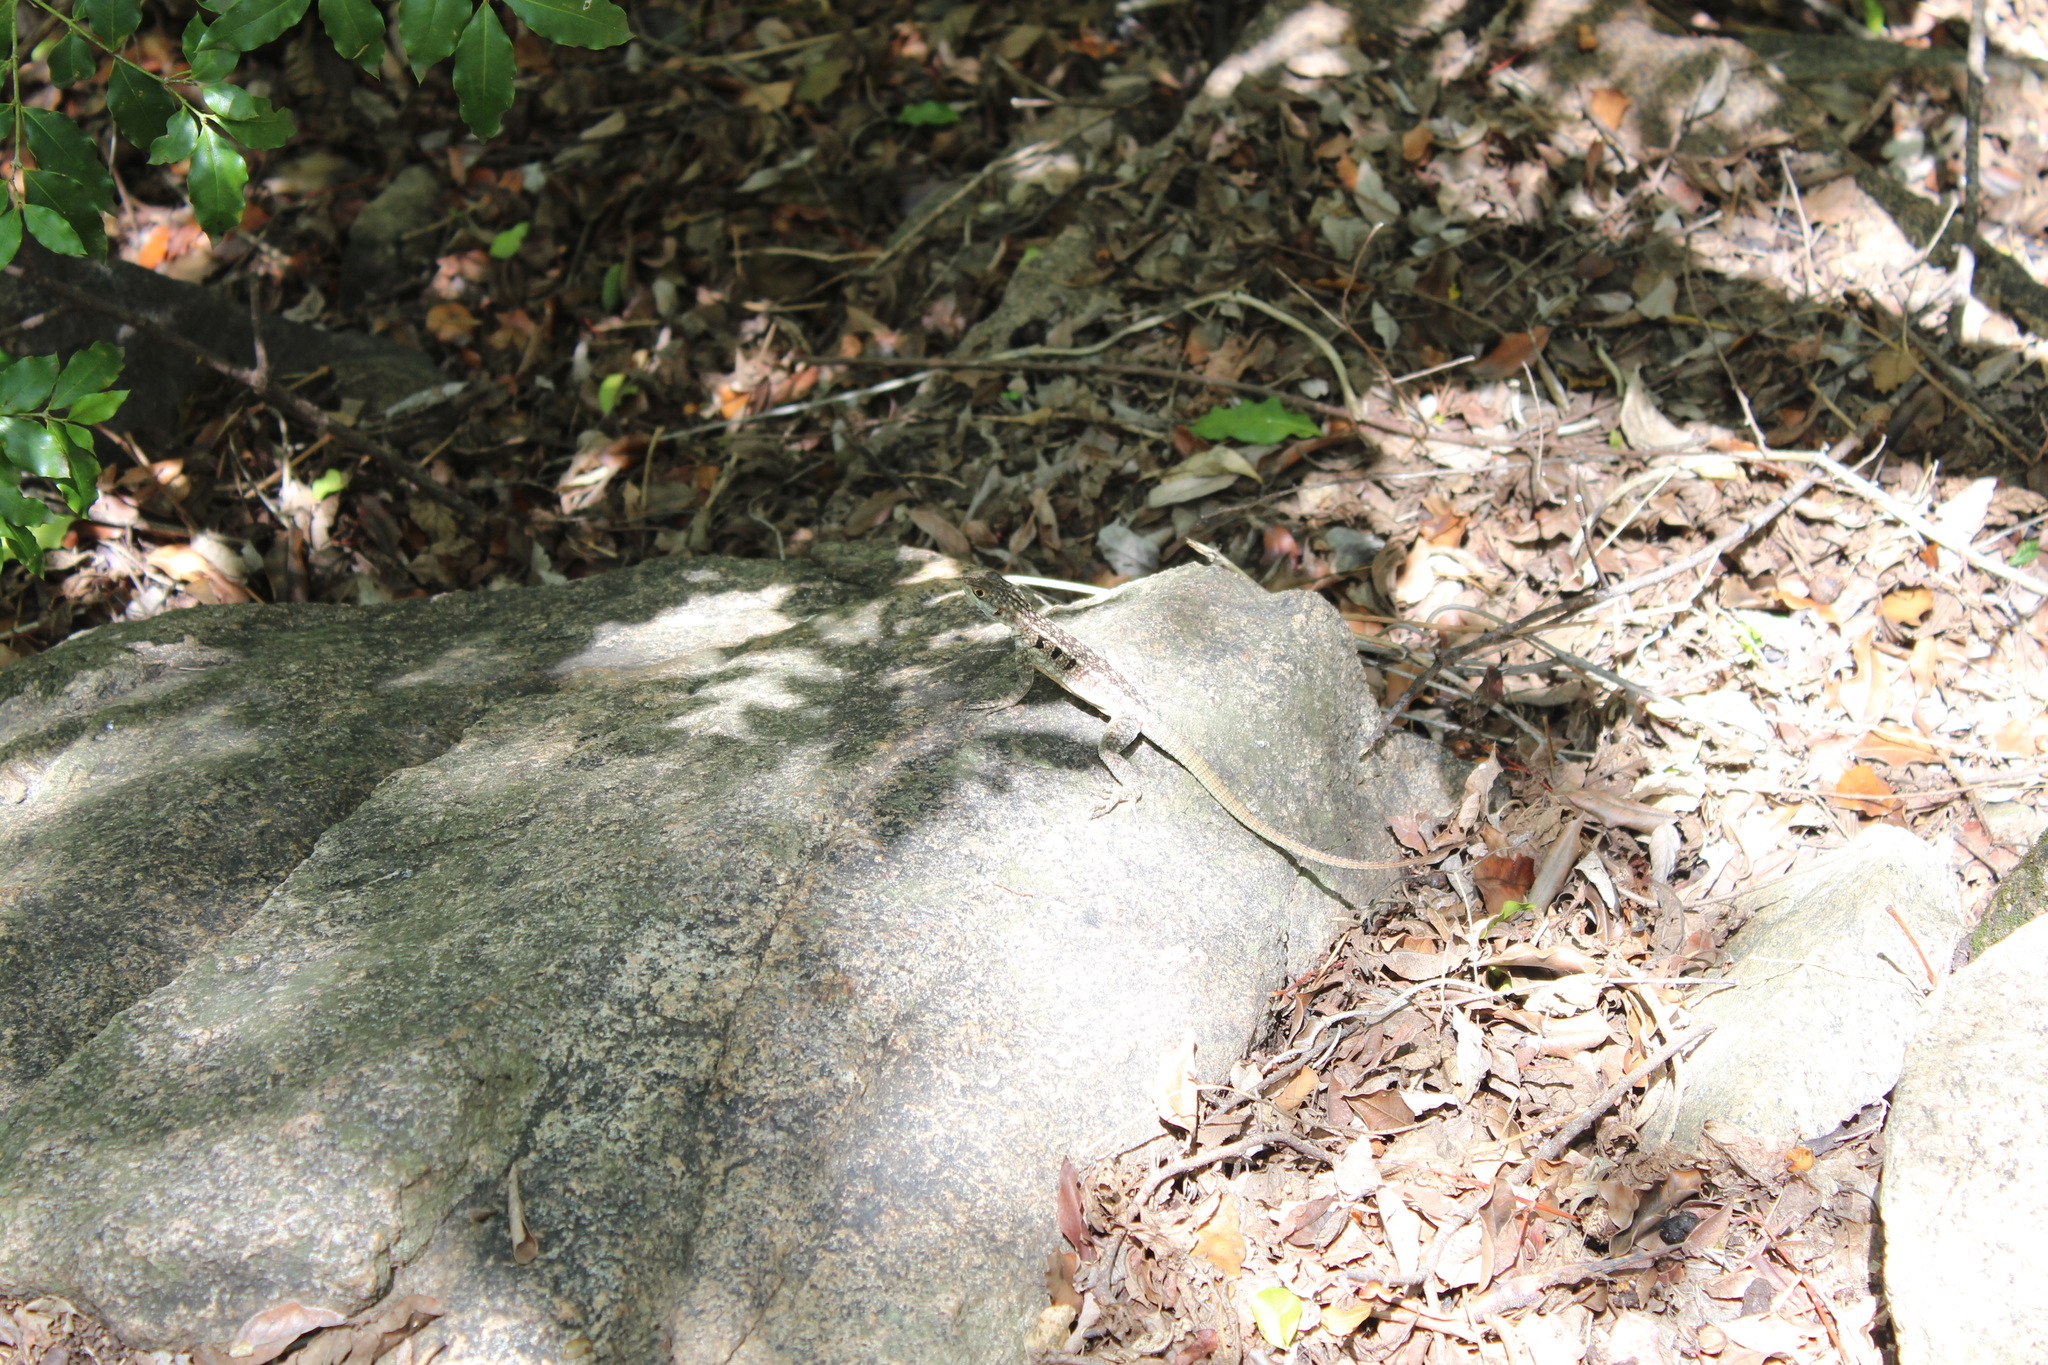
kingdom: Animalia
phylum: Chordata
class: Squamata
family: Opluridae
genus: Oplurus
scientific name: Oplurus quadrimaculatus
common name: Duméril's madagascar swift
